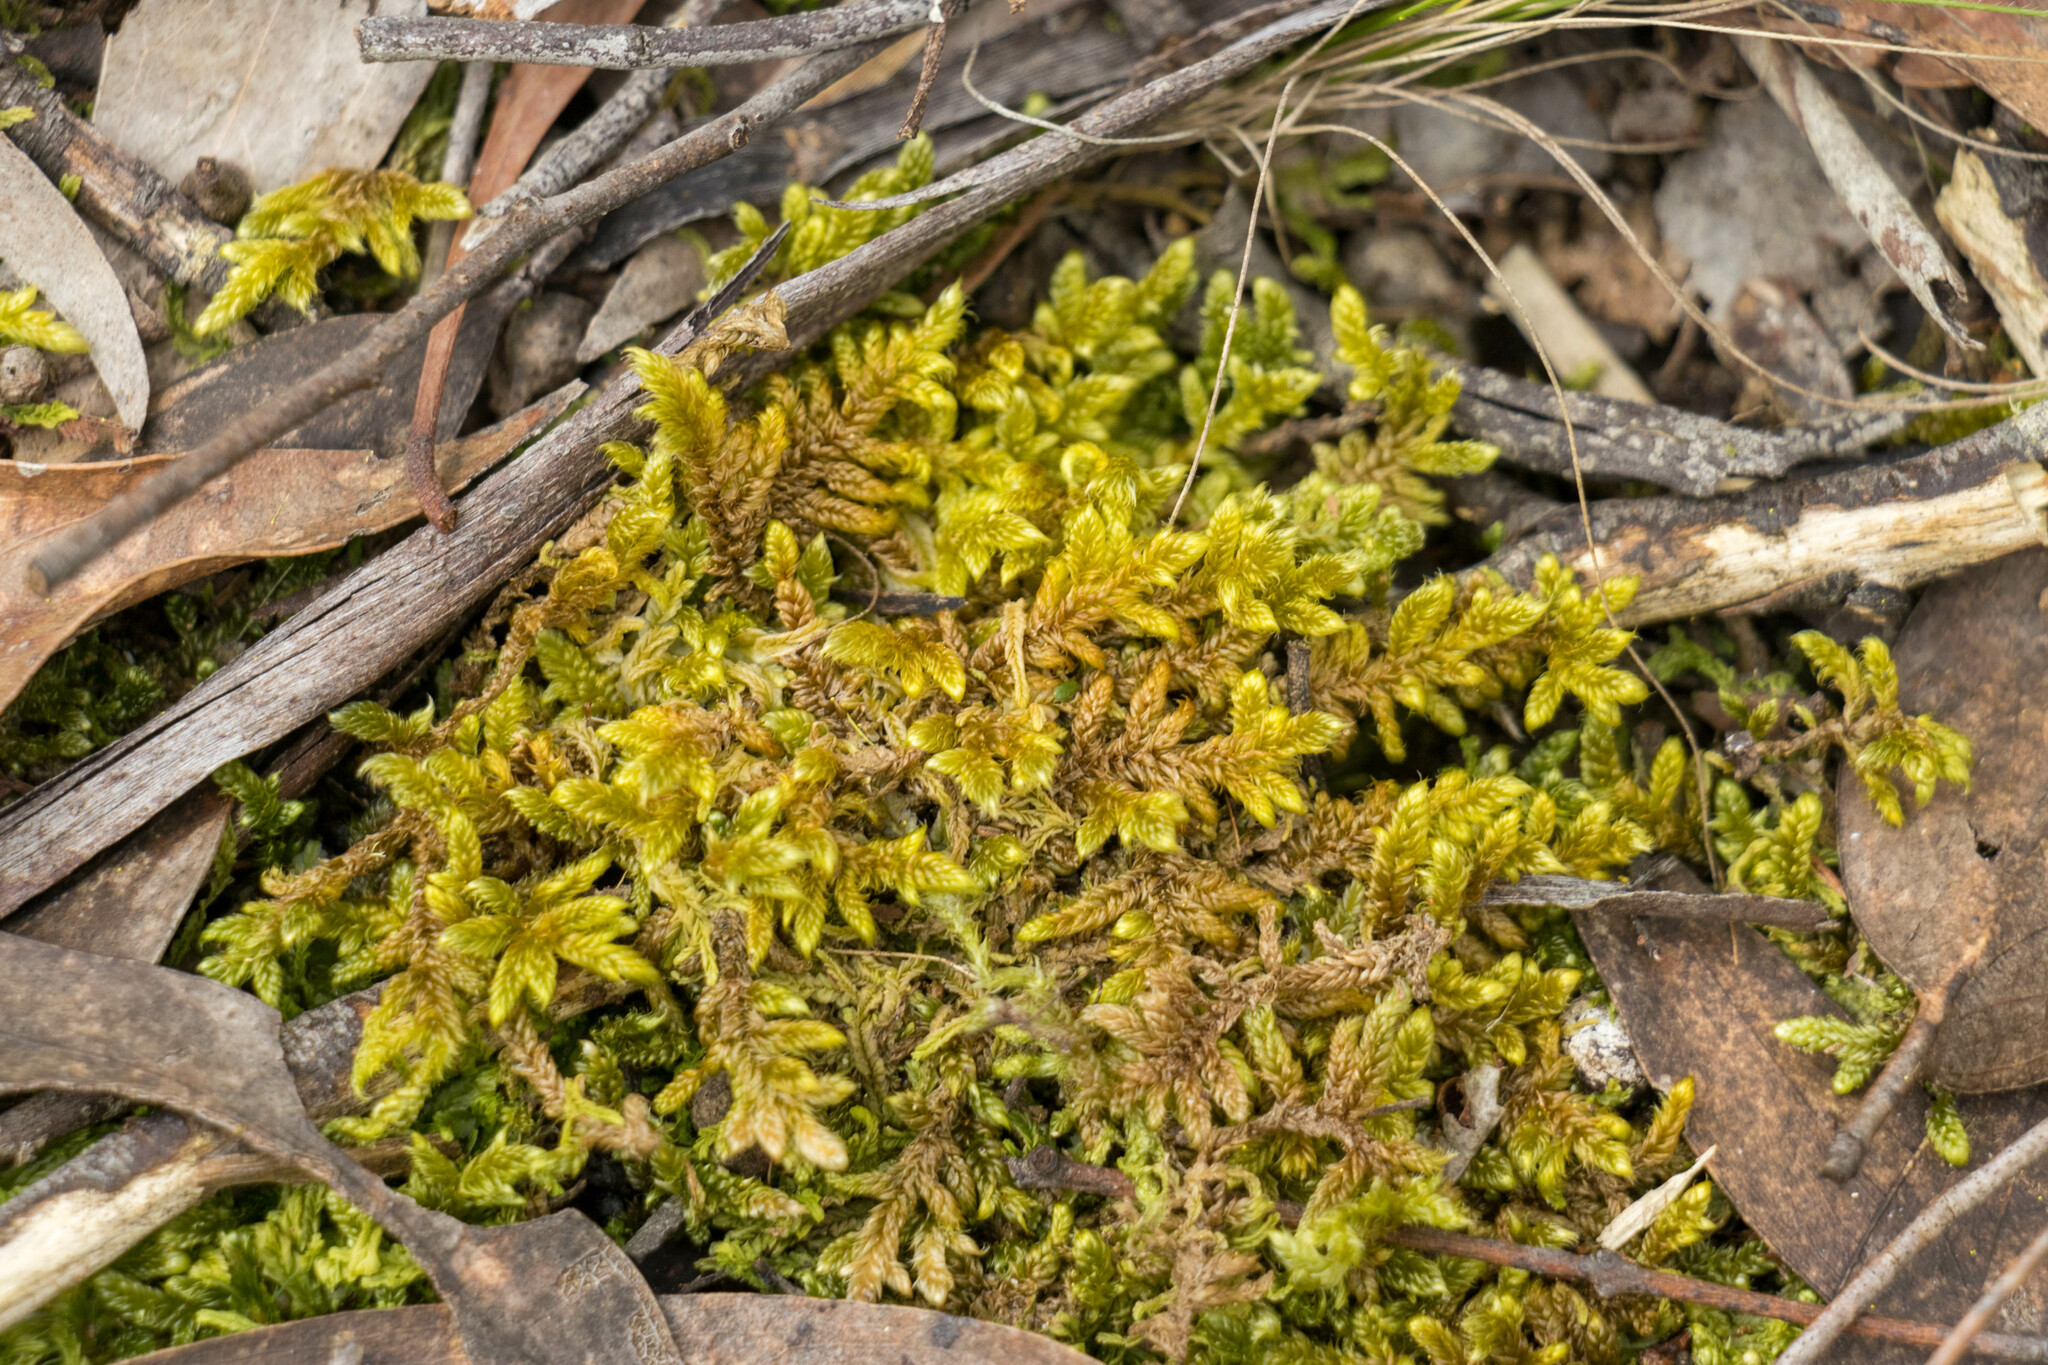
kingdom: Plantae
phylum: Bryophyta
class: Bryopsida
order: Hypnales
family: Hypnaceae
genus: Hypnum
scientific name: Hypnum cupressiforme
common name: Cypress-leaved plait-moss
